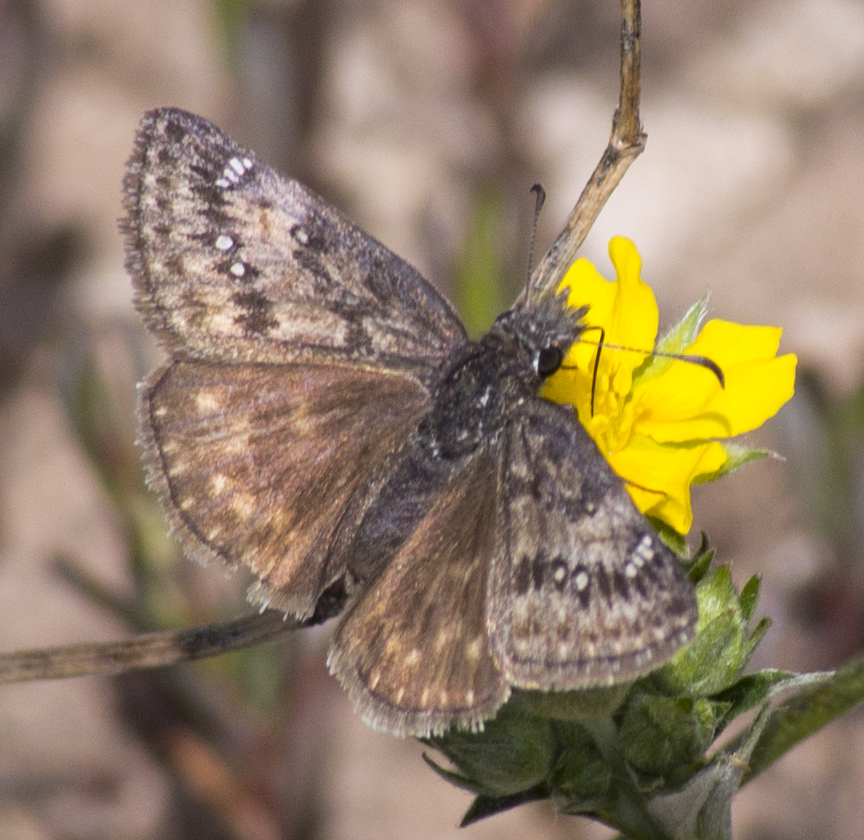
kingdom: Animalia
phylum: Arthropoda
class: Insecta
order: Lepidoptera
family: Hesperiidae
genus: Erynnis
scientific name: Erynnis persius
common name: Persius duskywing
